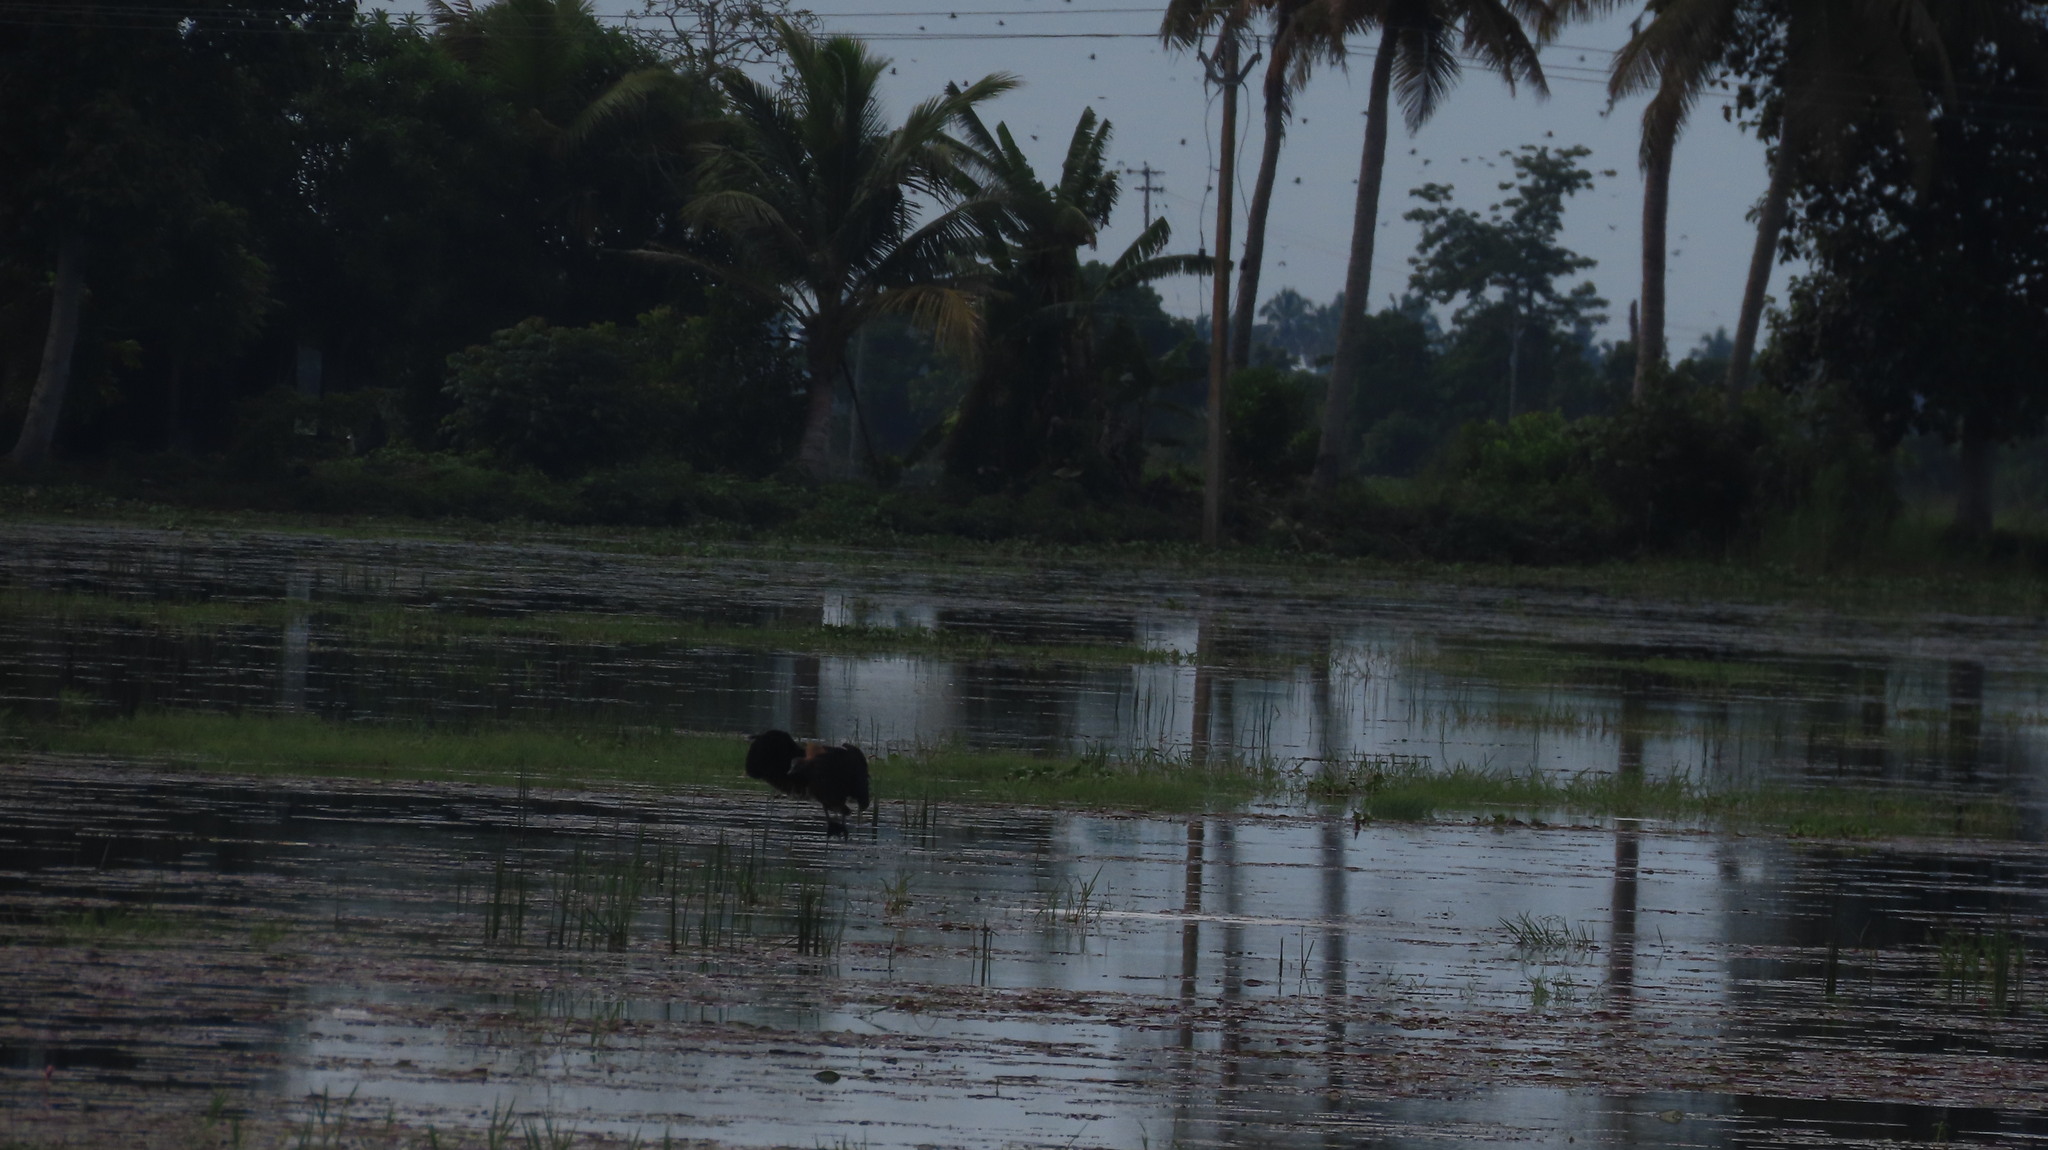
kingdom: Animalia
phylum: Chordata
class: Aves
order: Anseriformes
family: Anatidae
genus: Dendrocygna
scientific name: Dendrocygna javanica
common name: Lesser whistling-duck
